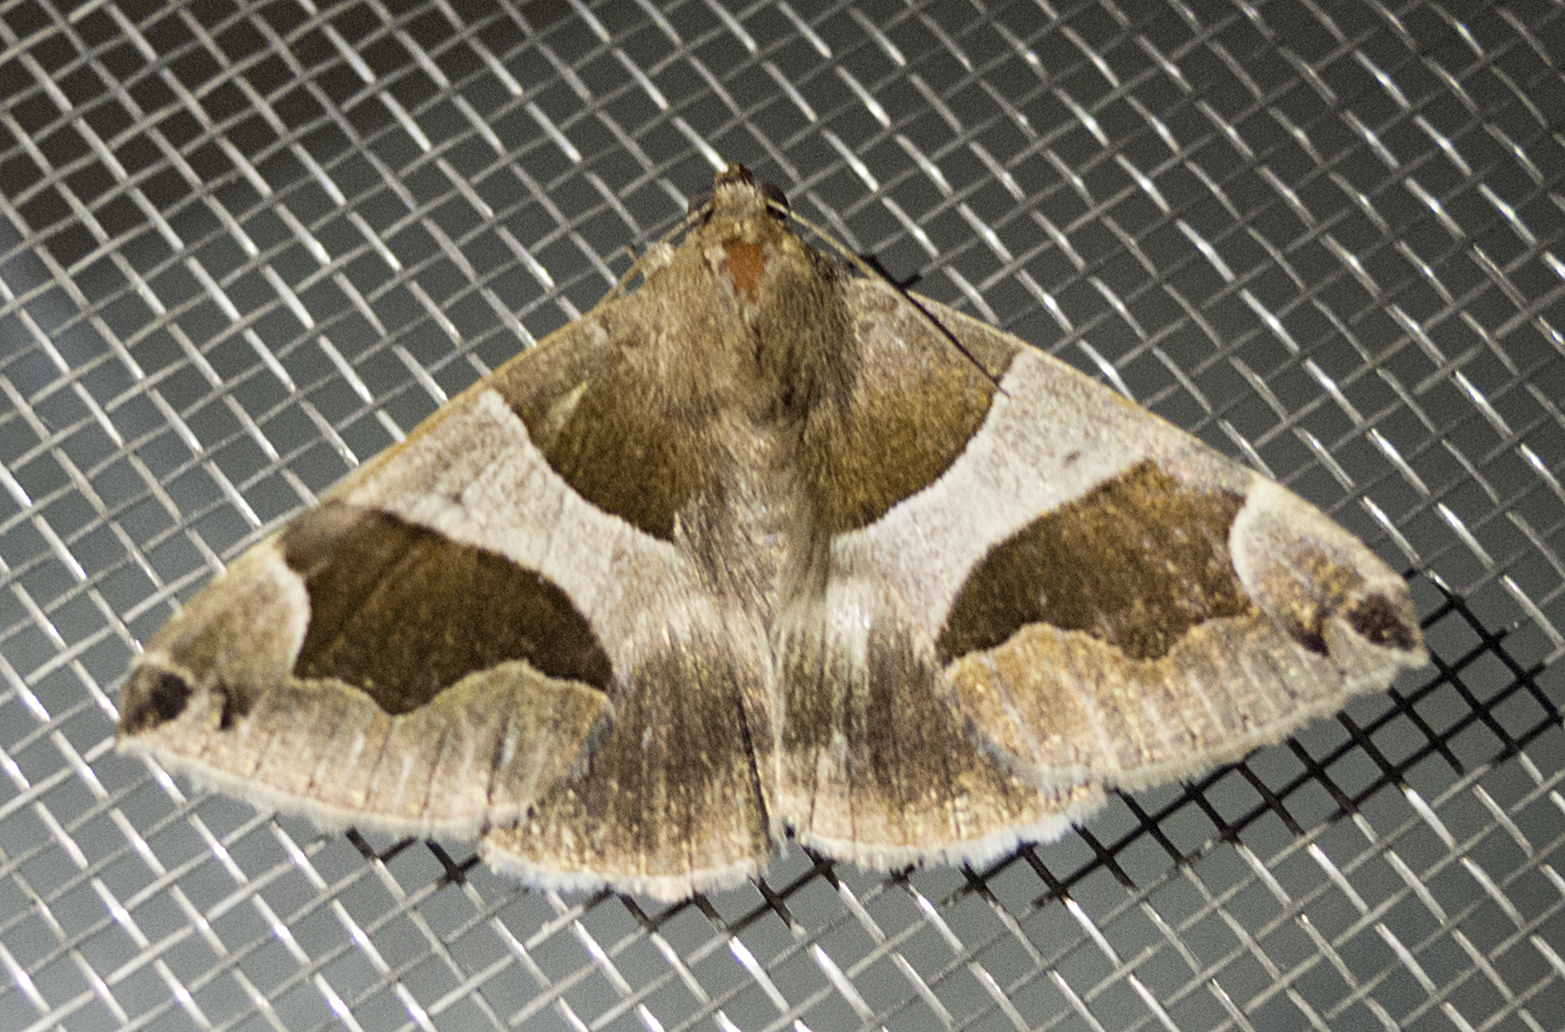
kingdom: Animalia
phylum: Arthropoda
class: Insecta
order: Lepidoptera
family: Erebidae
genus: Dysgonia
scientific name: Dysgonia algira
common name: Passenger
